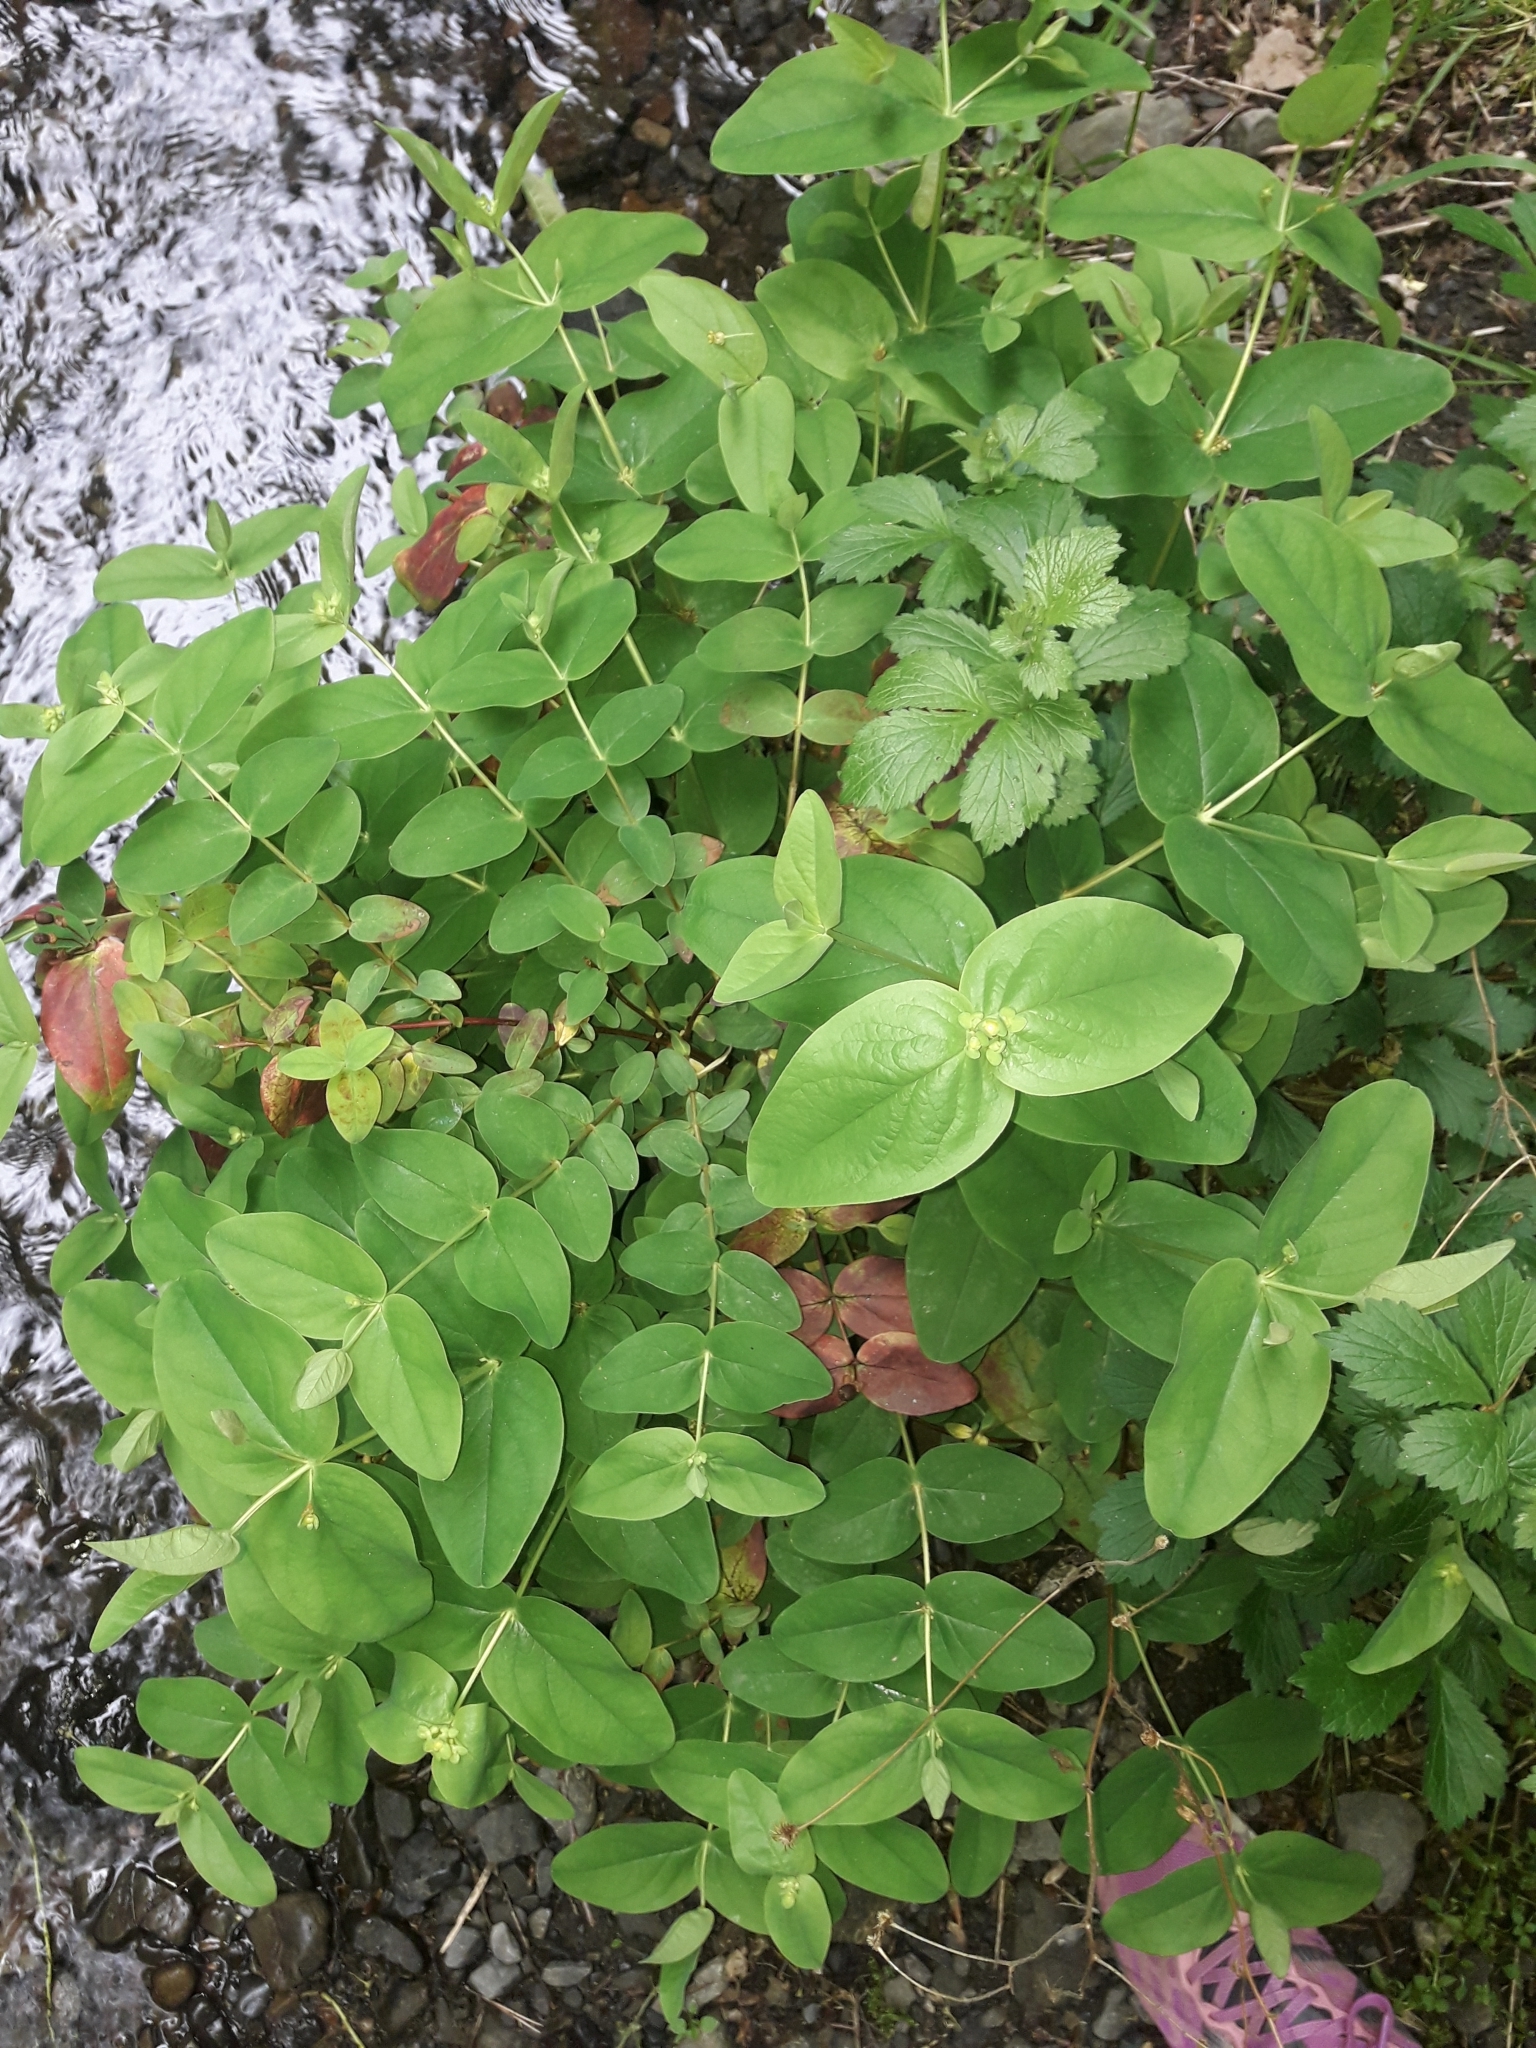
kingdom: Plantae
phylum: Tracheophyta
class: Magnoliopsida
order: Malpighiales
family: Hypericaceae
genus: Hypericum
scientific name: Hypericum androsaemum
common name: Sweet-amber
